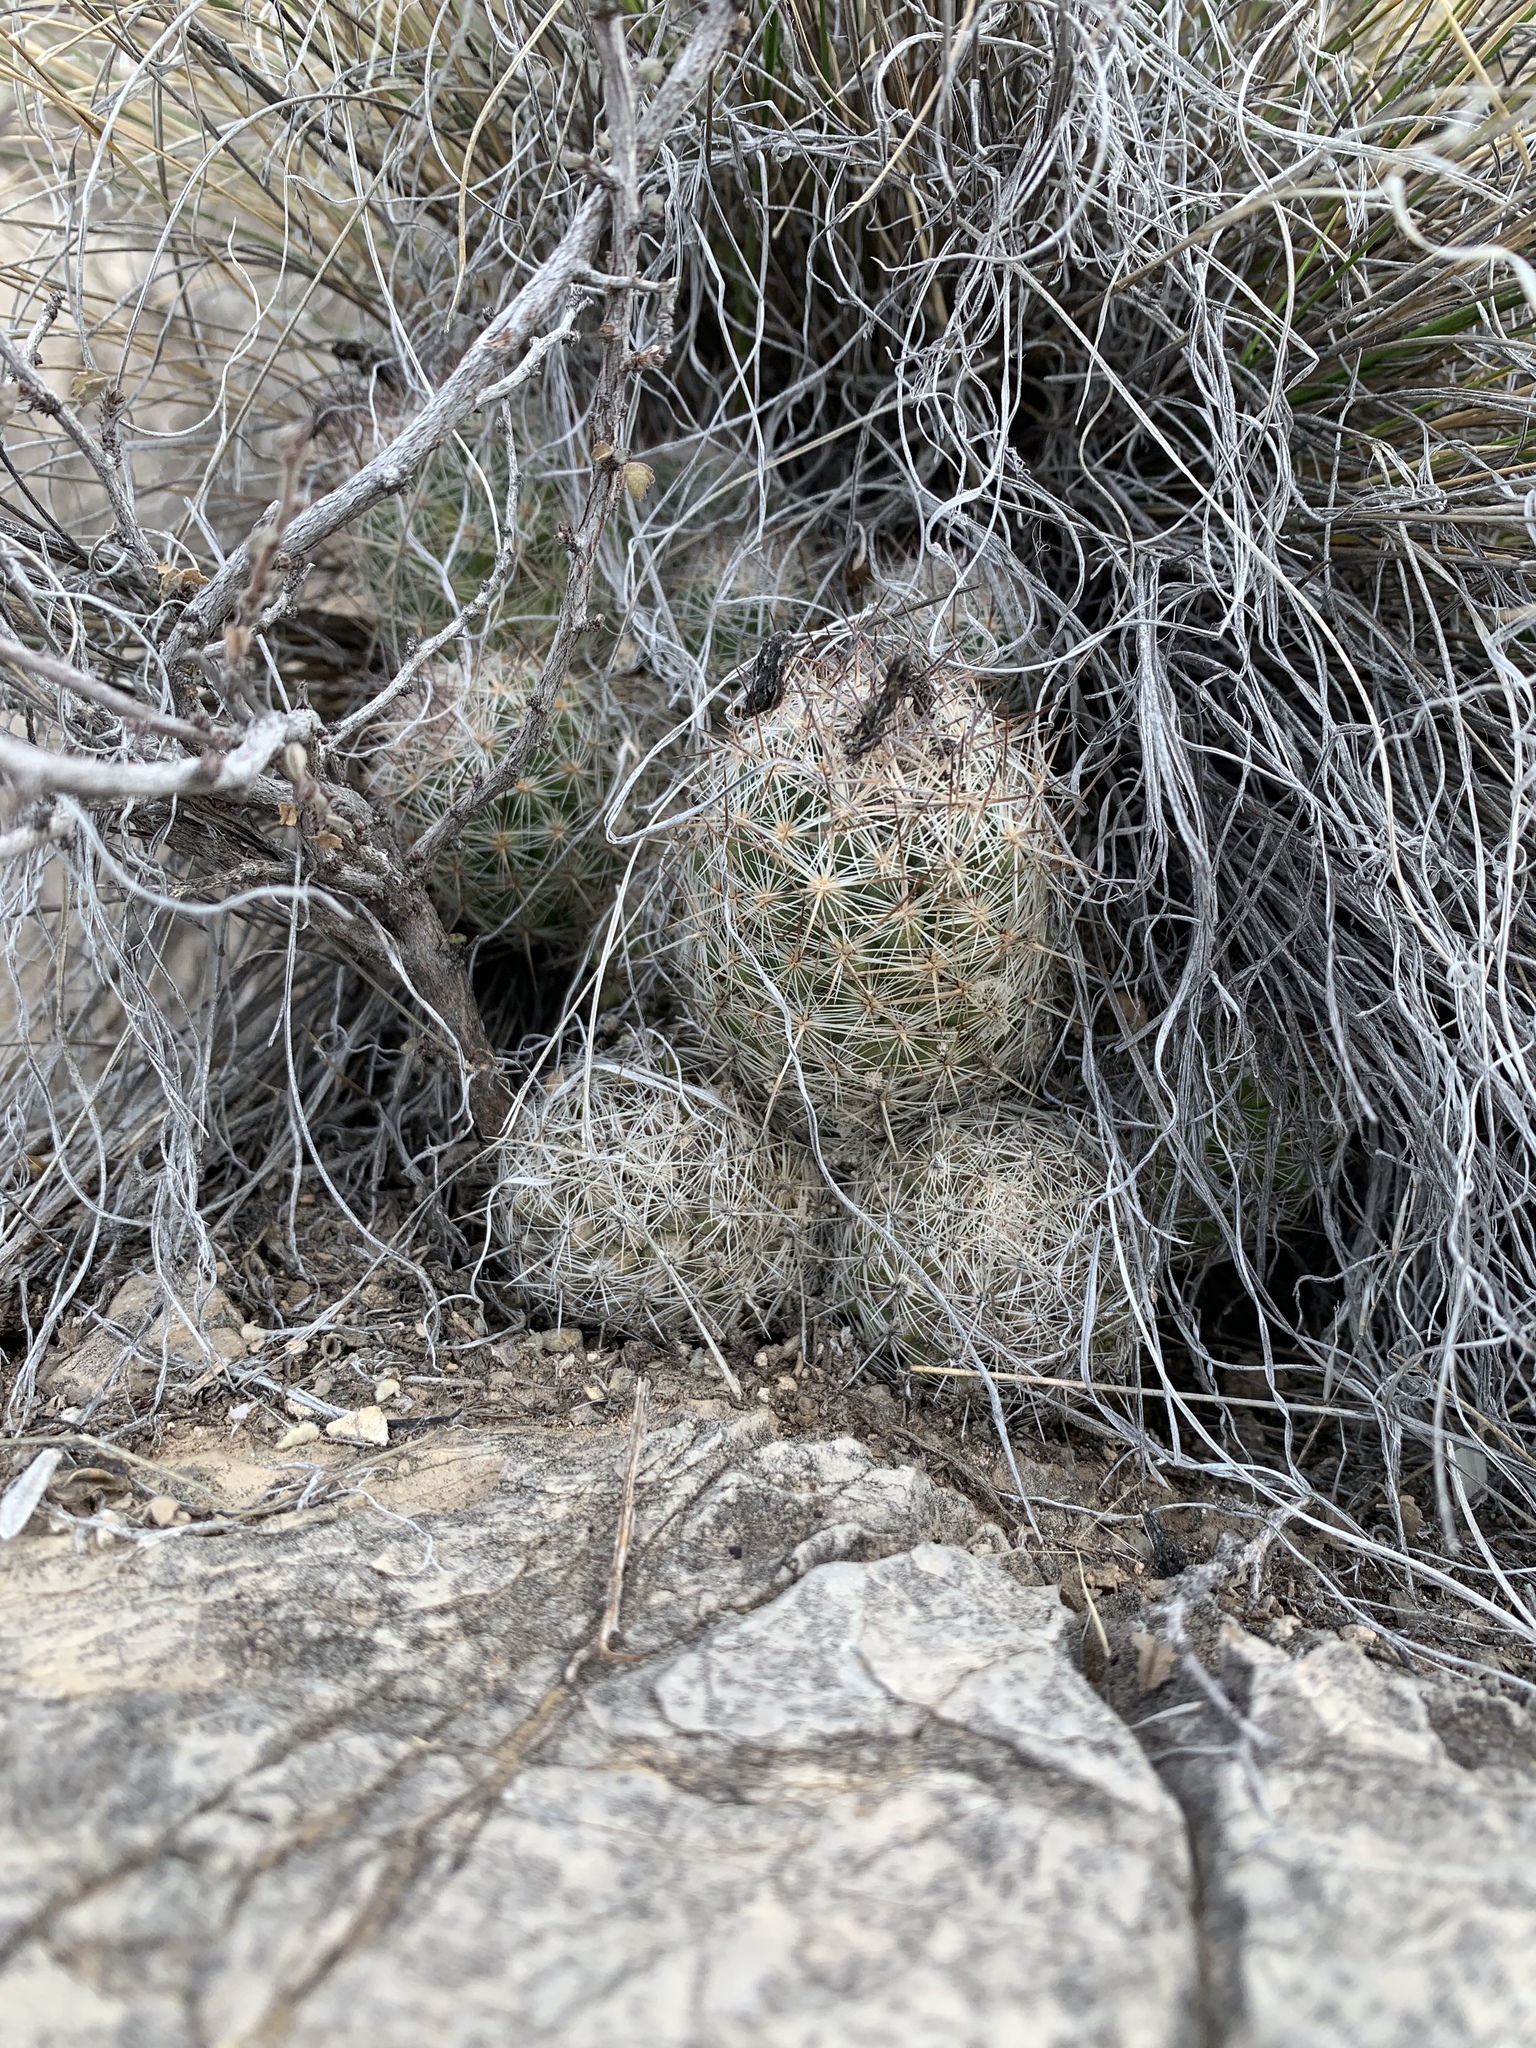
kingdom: Plantae
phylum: Tracheophyta
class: Magnoliopsida
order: Caryophyllales
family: Cactaceae
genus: Pelecyphora
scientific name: Pelecyphora tuberculosa
